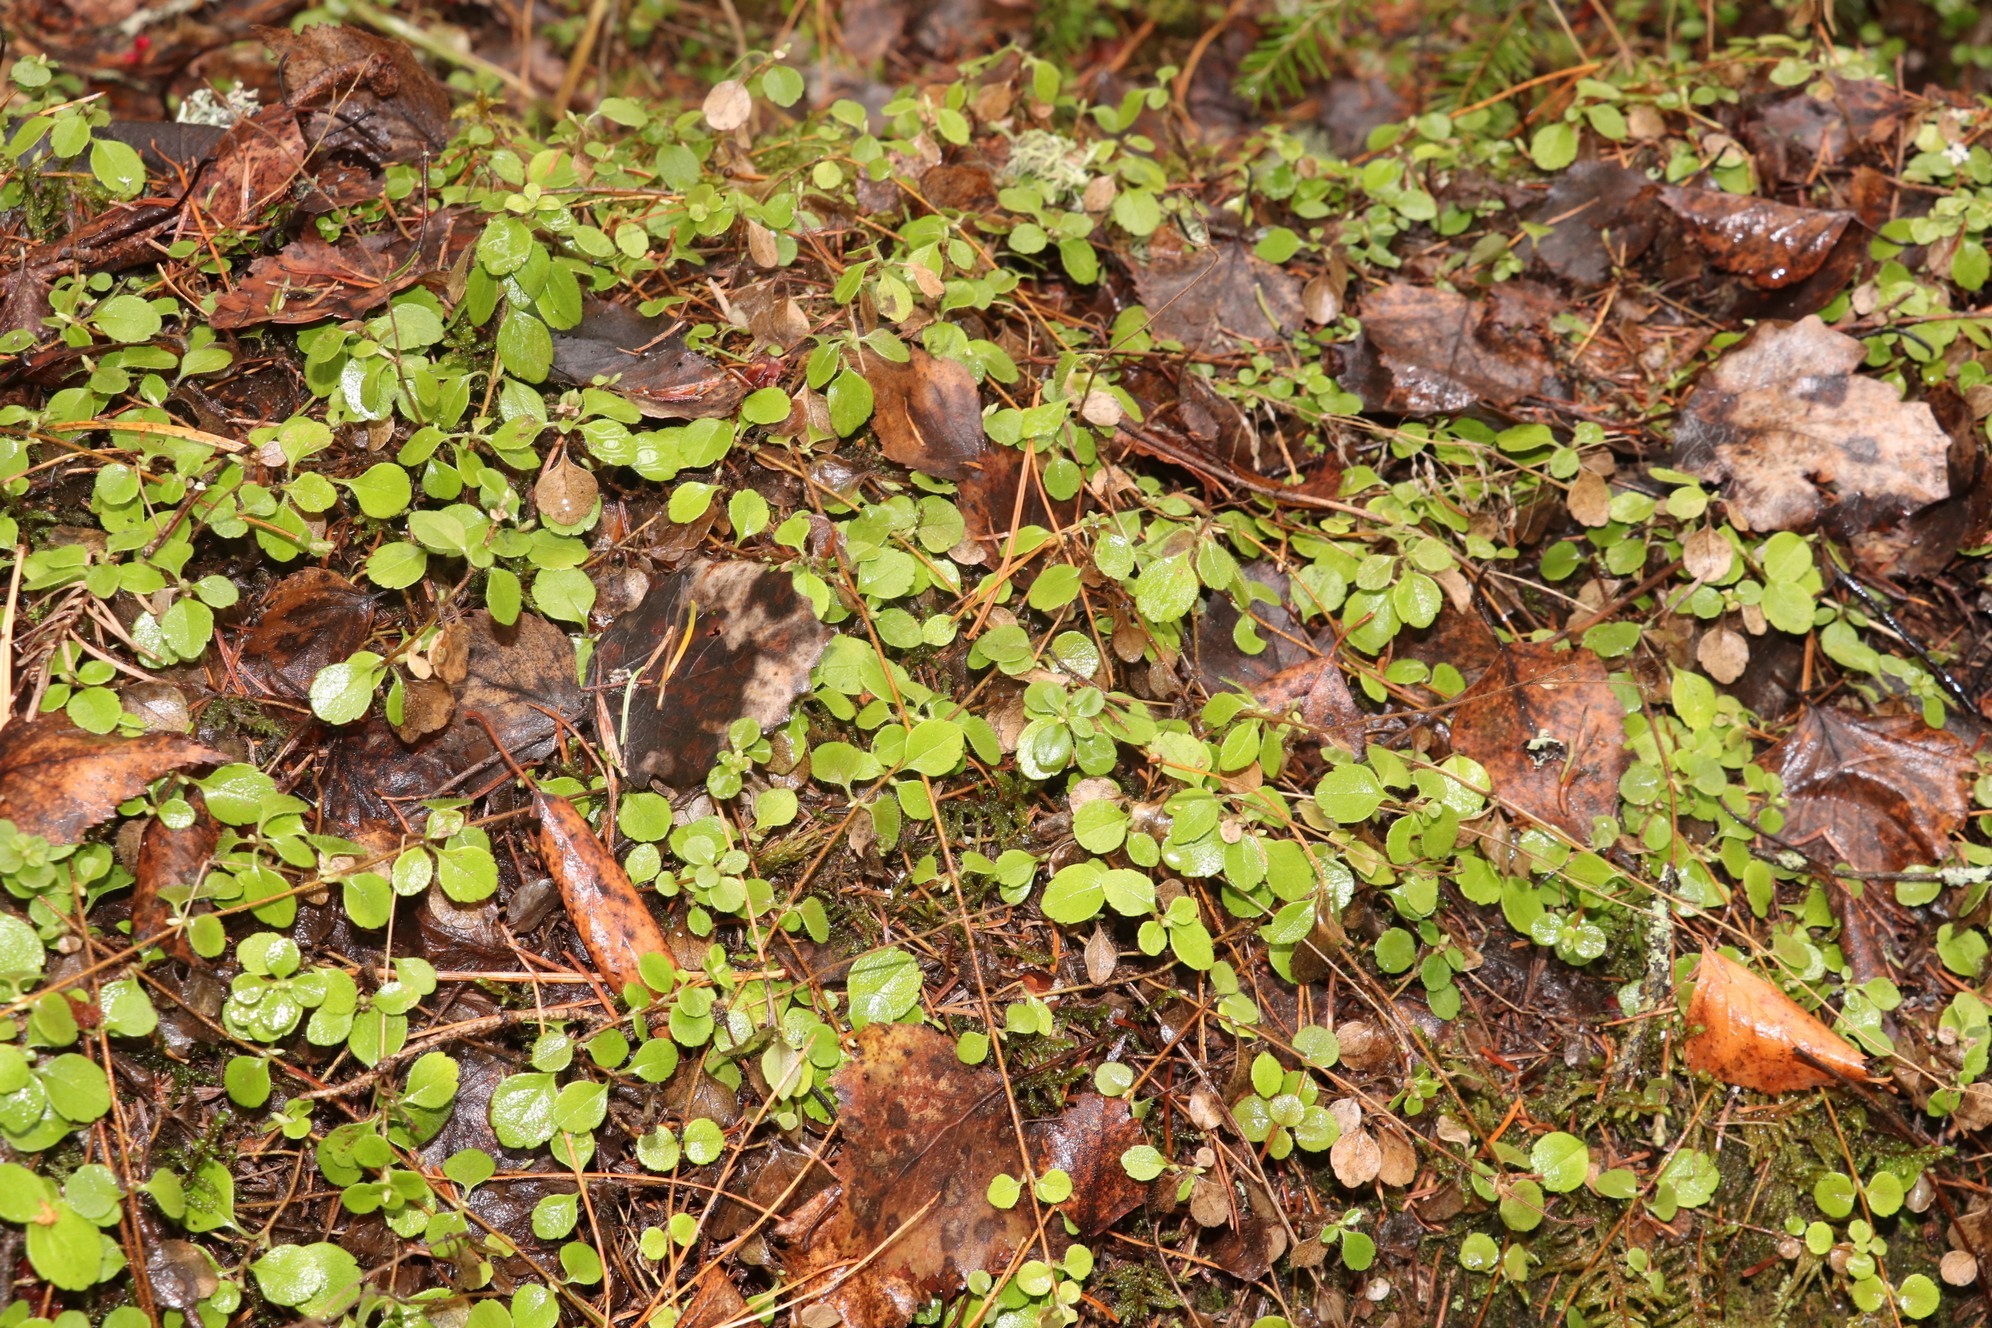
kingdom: Plantae
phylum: Tracheophyta
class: Magnoliopsida
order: Dipsacales
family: Caprifoliaceae
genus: Linnaea
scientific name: Linnaea borealis
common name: Twinflower
